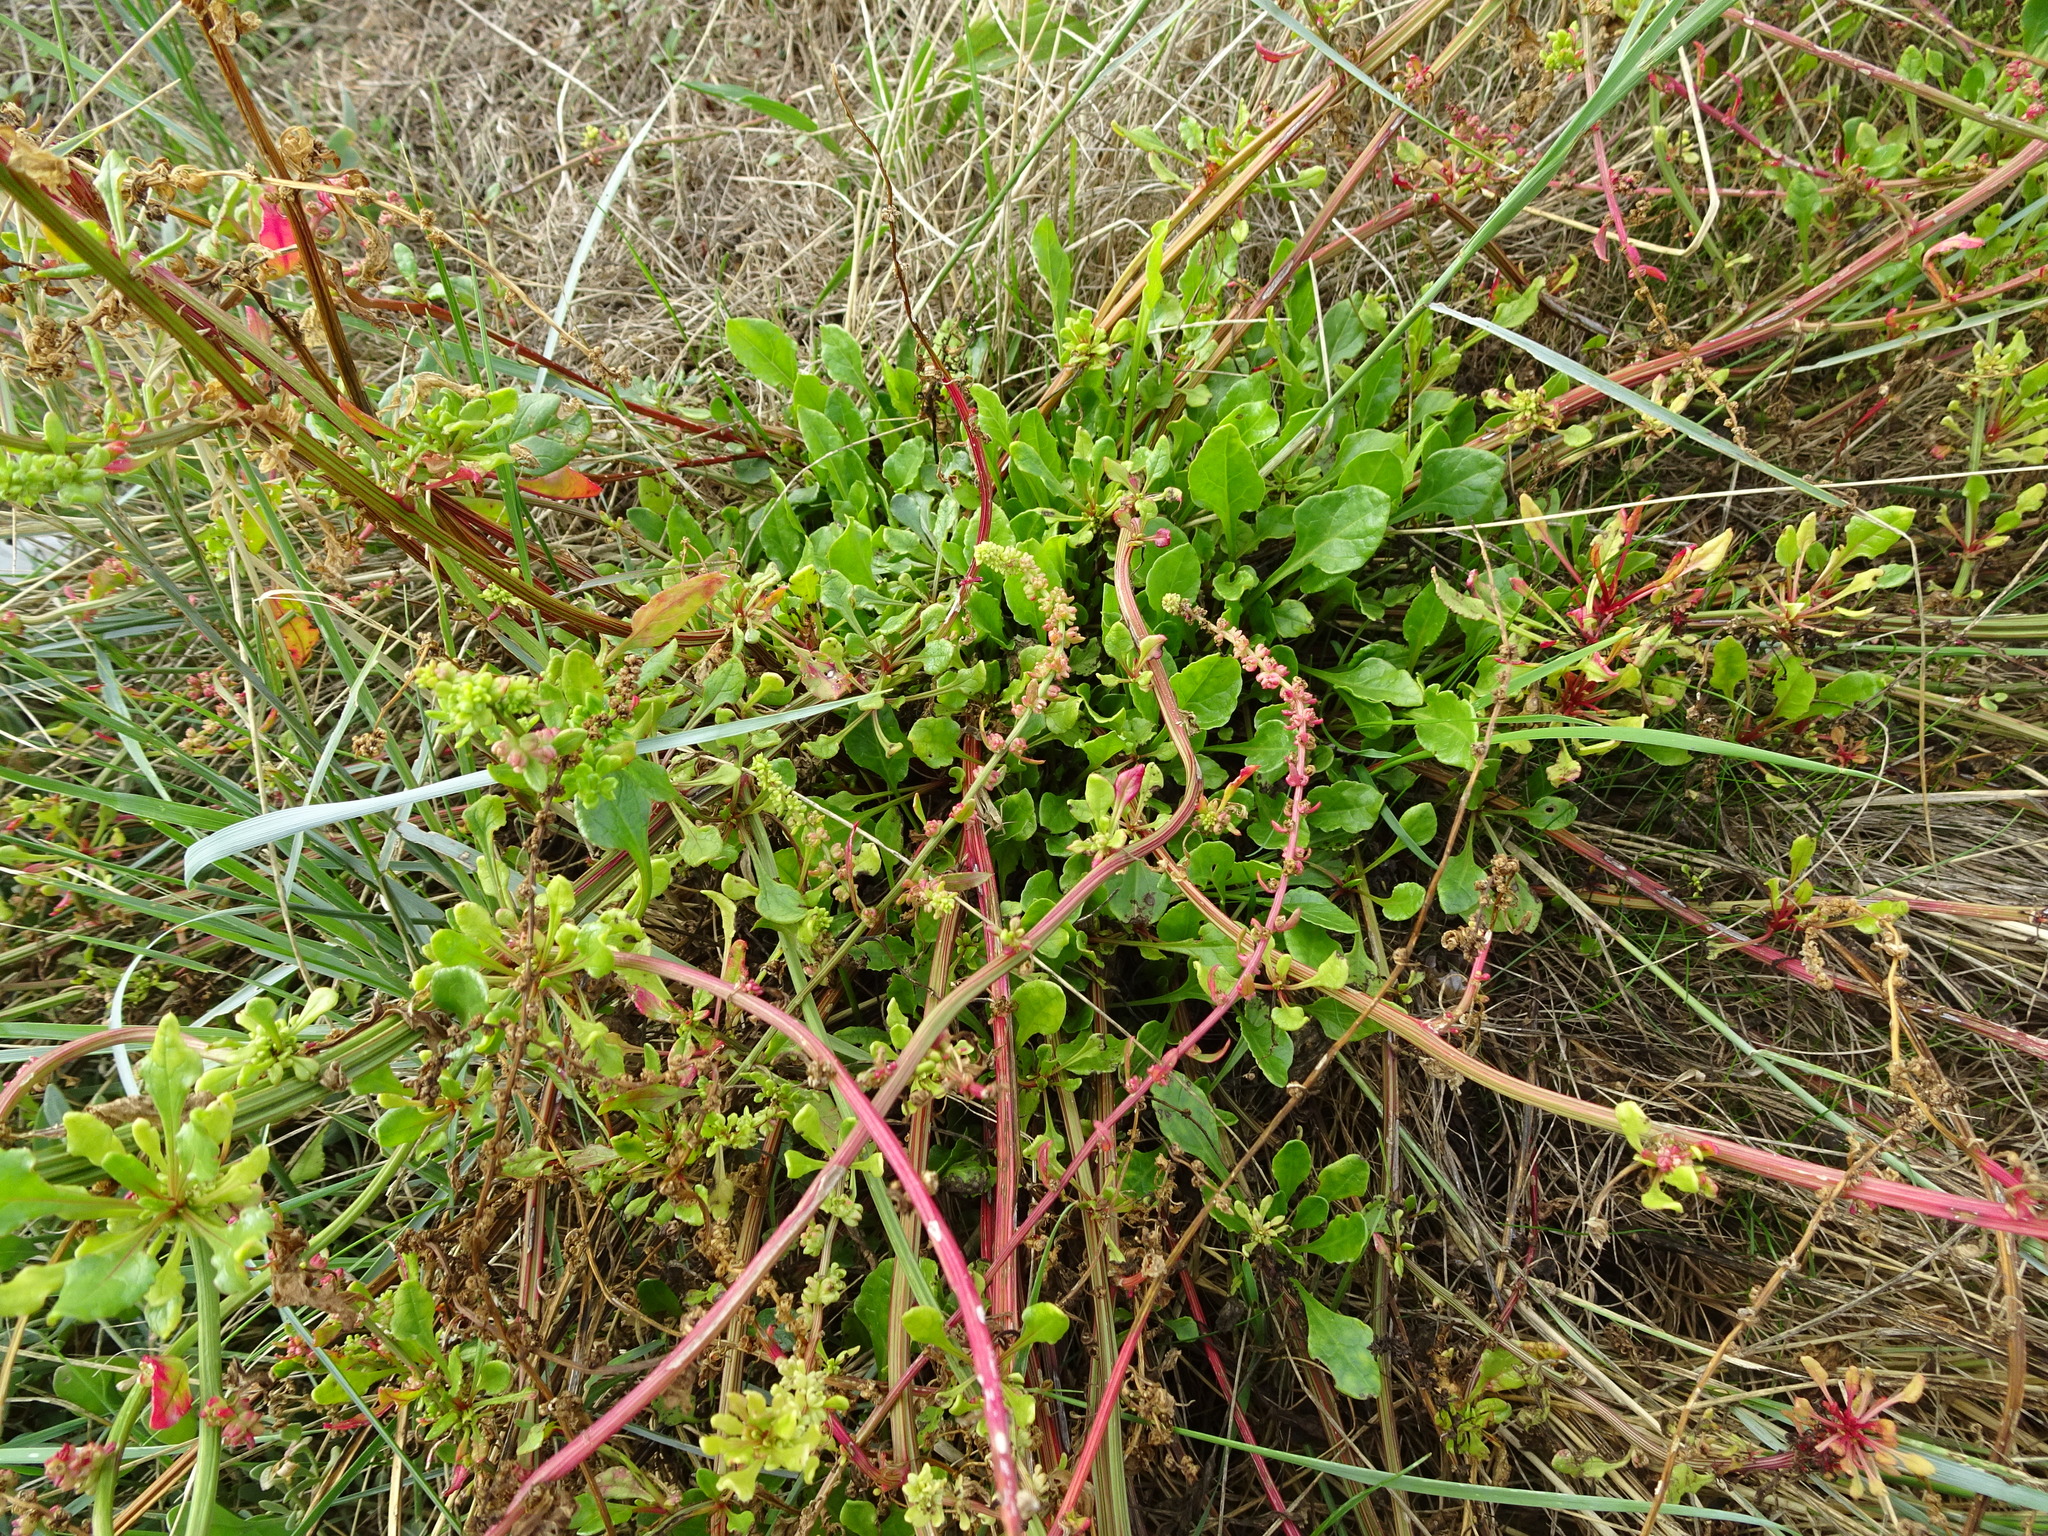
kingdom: Plantae
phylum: Tracheophyta
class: Magnoliopsida
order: Caryophyllales
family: Amaranthaceae
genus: Beta
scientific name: Beta vulgaris
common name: Beet
